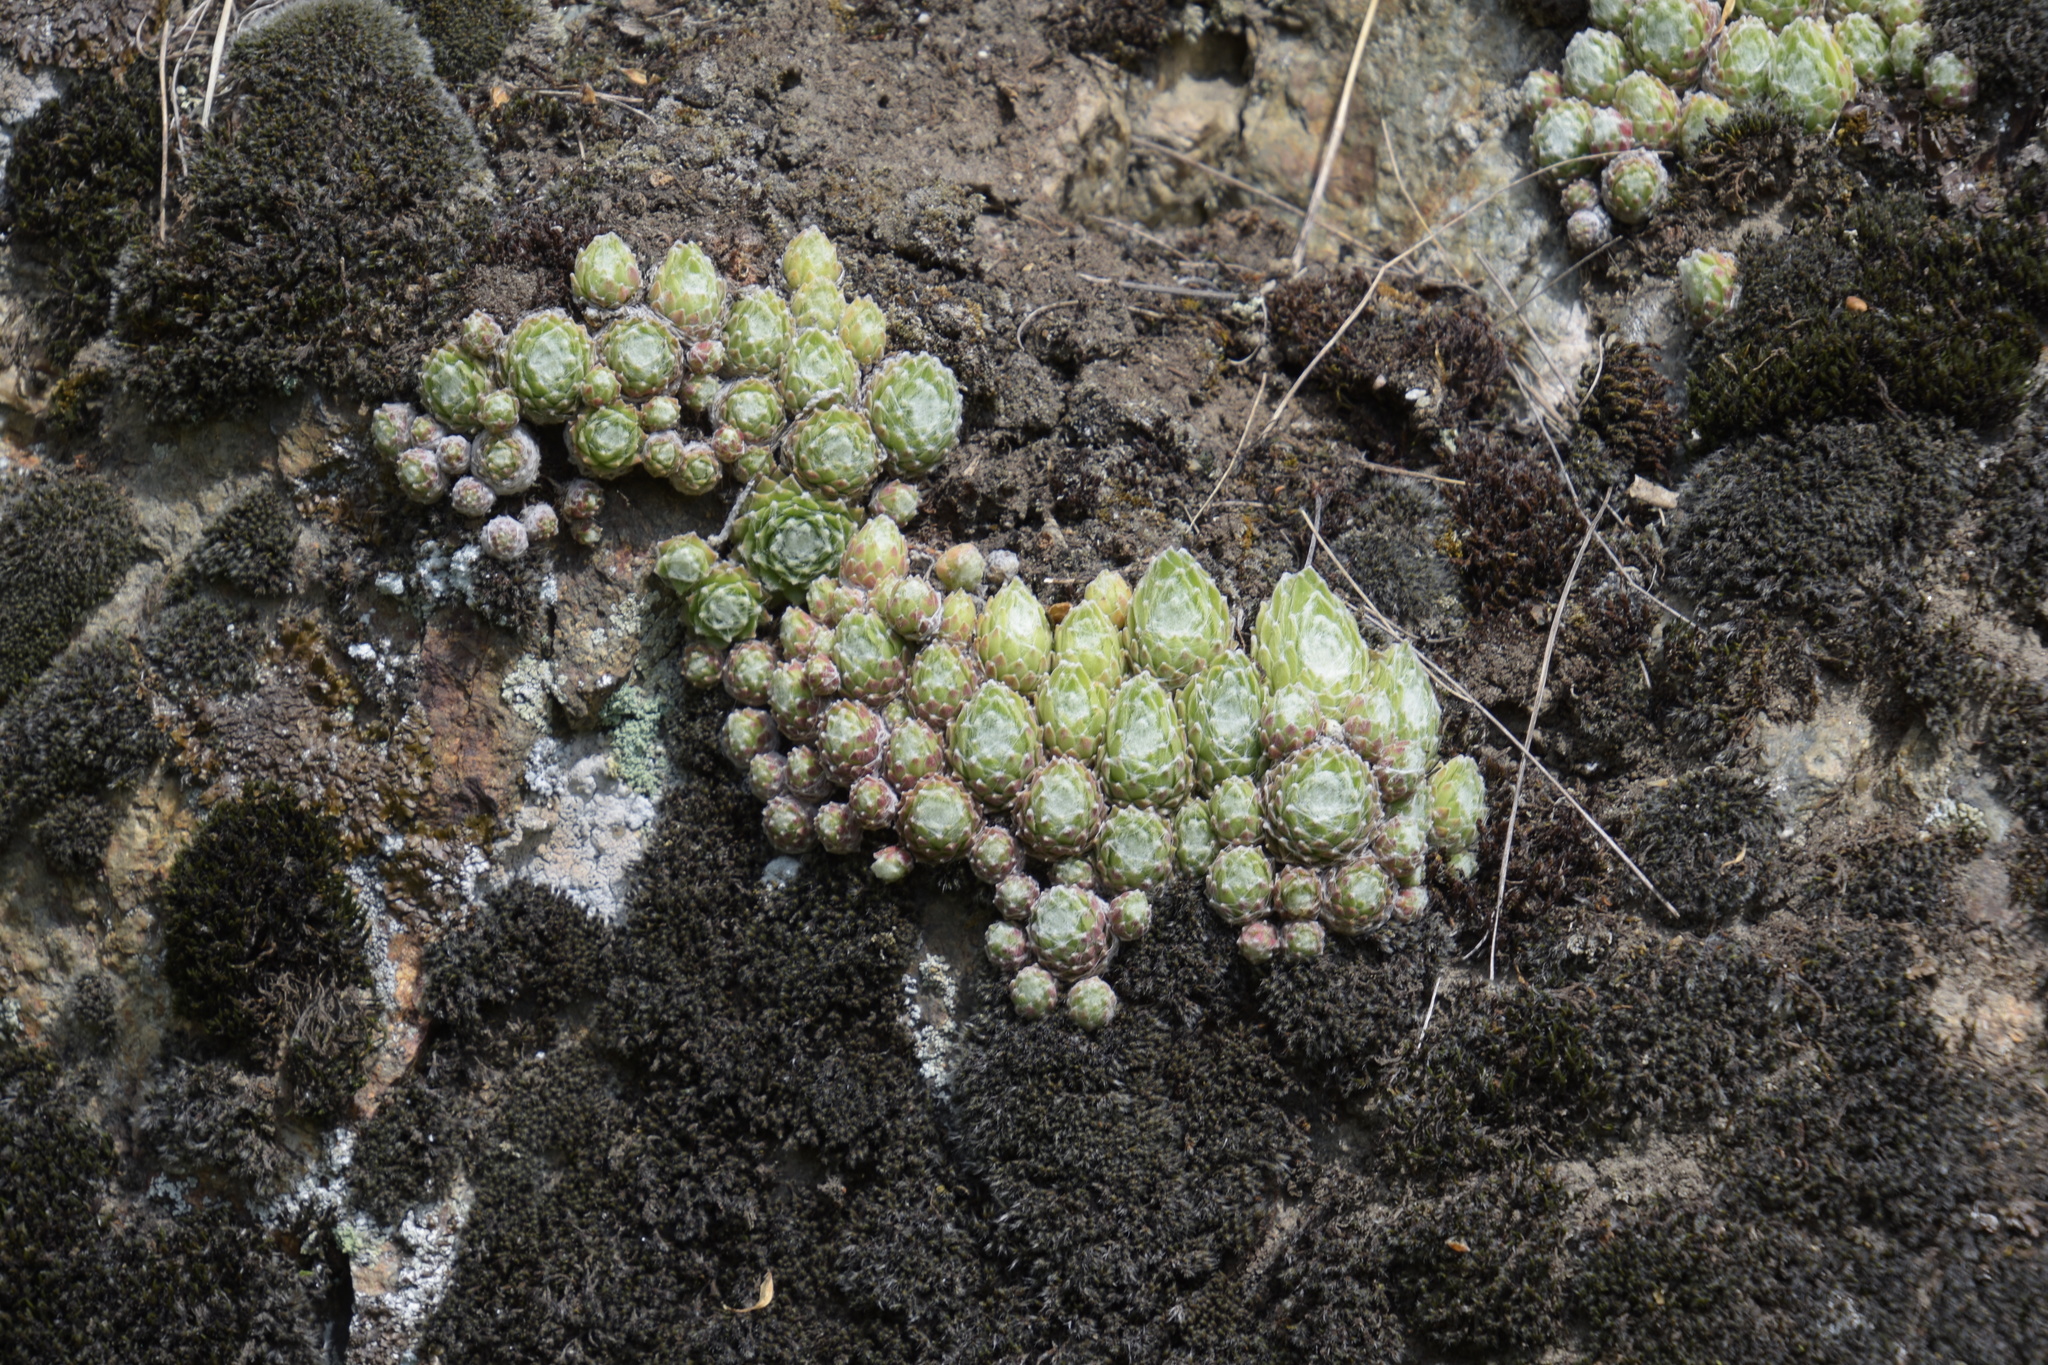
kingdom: Plantae
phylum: Tracheophyta
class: Magnoliopsida
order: Saxifragales
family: Crassulaceae
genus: Sempervivum
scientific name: Sempervivum arachnoideum
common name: Cobweb house-leek
